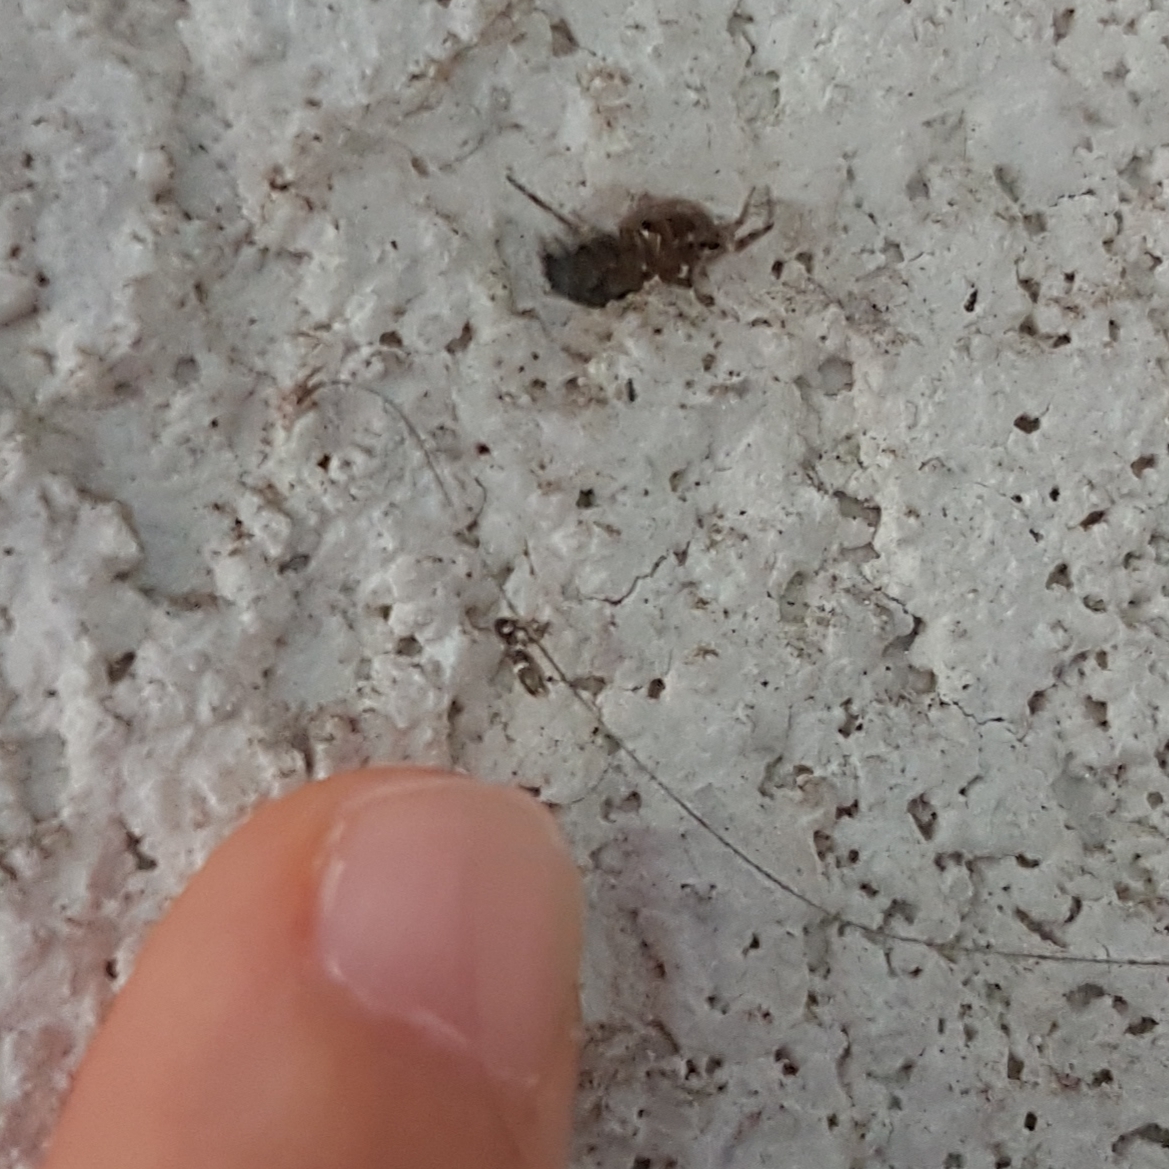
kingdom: Animalia
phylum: Arthropoda
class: Arachnida
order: Araneae
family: Theridiidae
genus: Steatoda
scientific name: Steatoda nobilis
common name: Cobweb weaver
